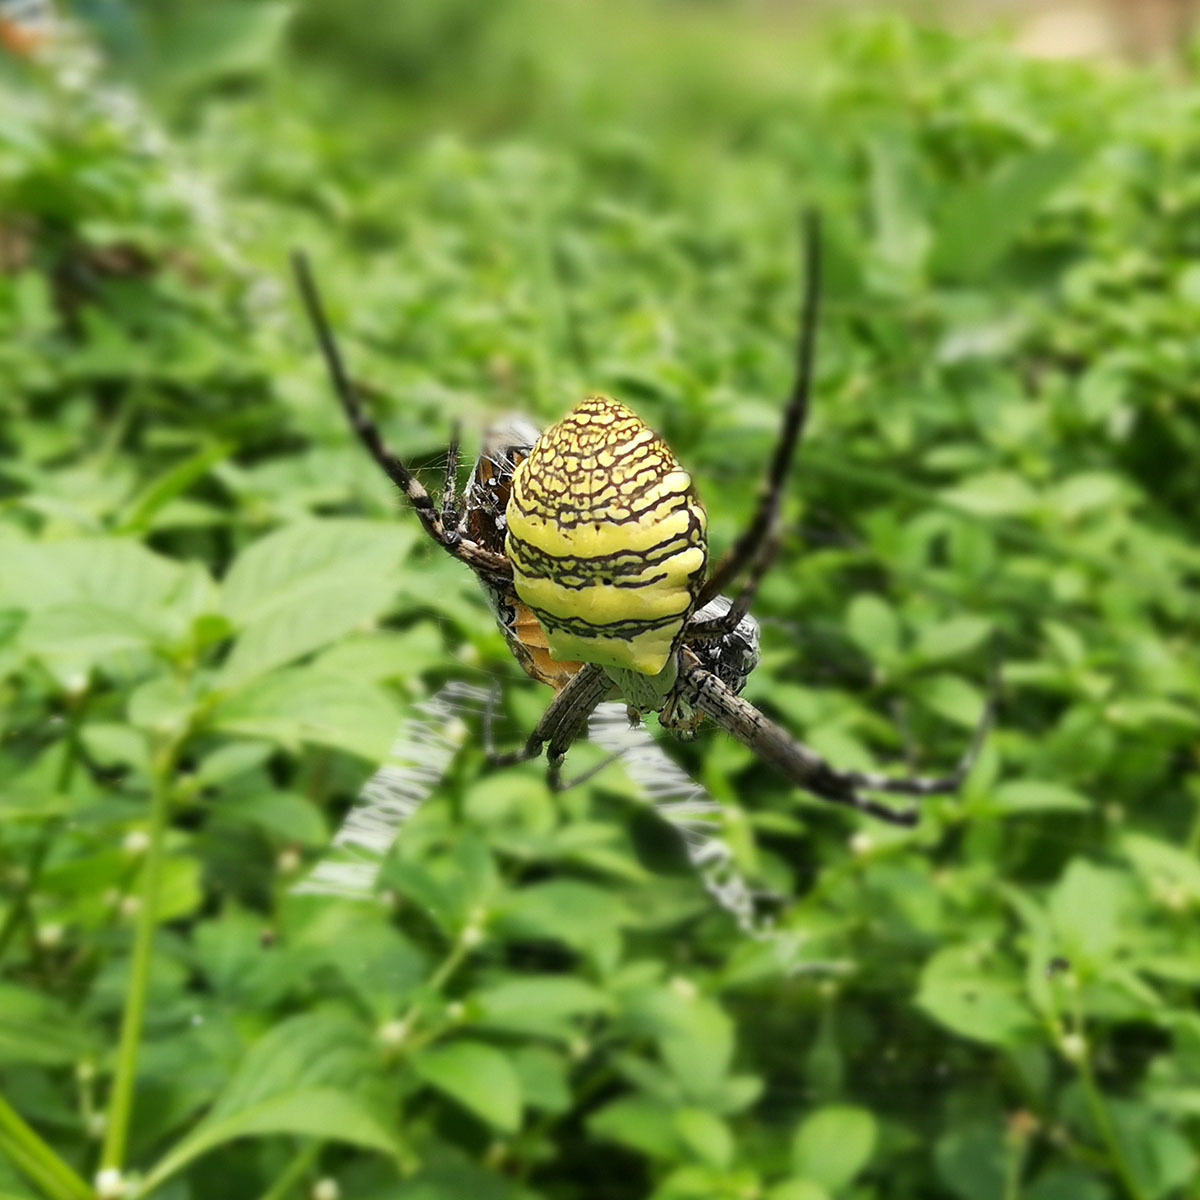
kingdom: Animalia
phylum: Arthropoda
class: Arachnida
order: Araneae
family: Araneidae
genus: Argiope
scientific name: Argiope aemula
